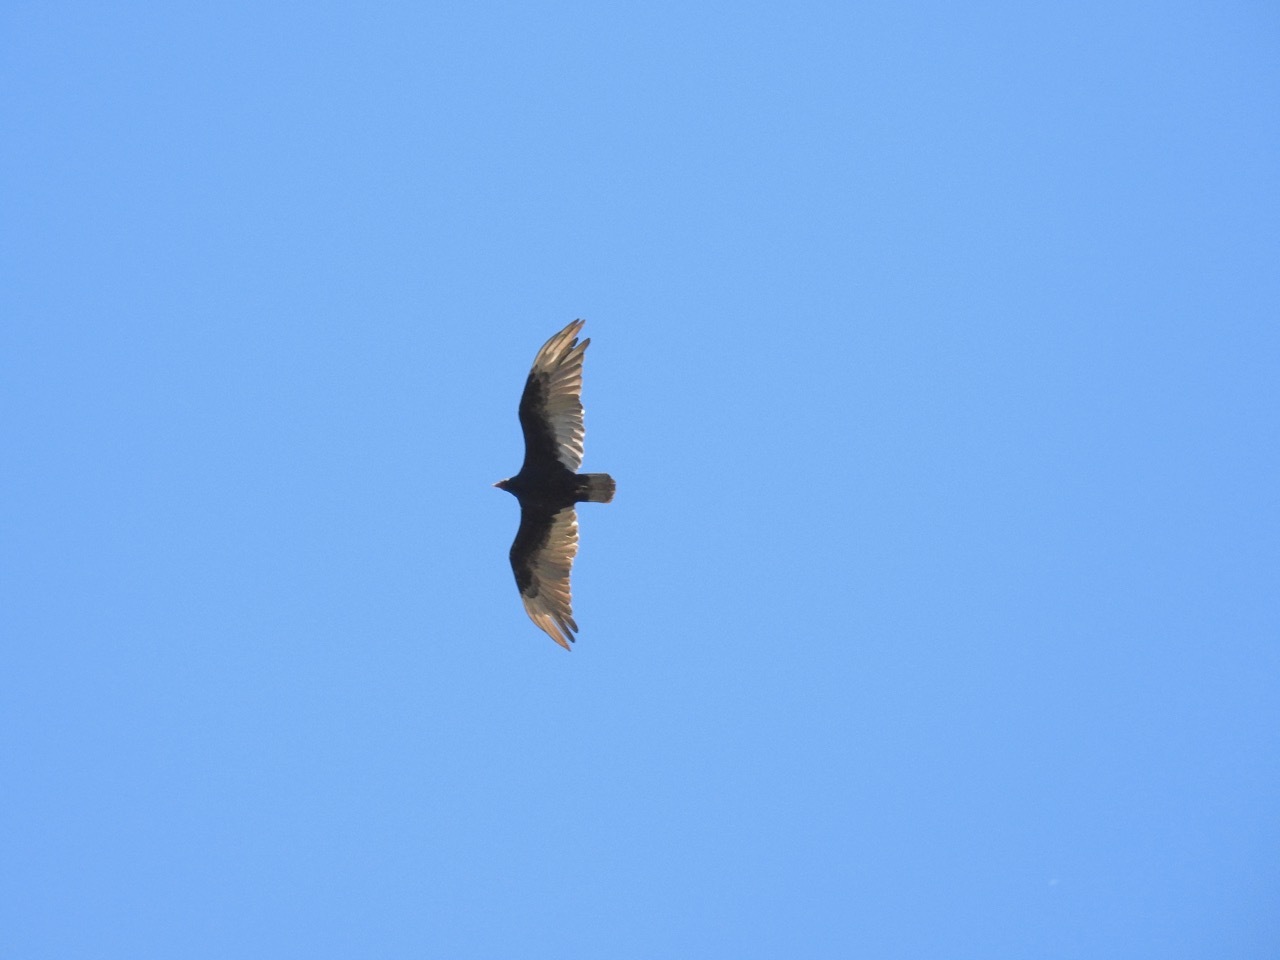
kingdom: Animalia
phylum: Chordata
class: Aves
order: Accipitriformes
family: Cathartidae
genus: Cathartes
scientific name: Cathartes aura
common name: Turkey vulture
